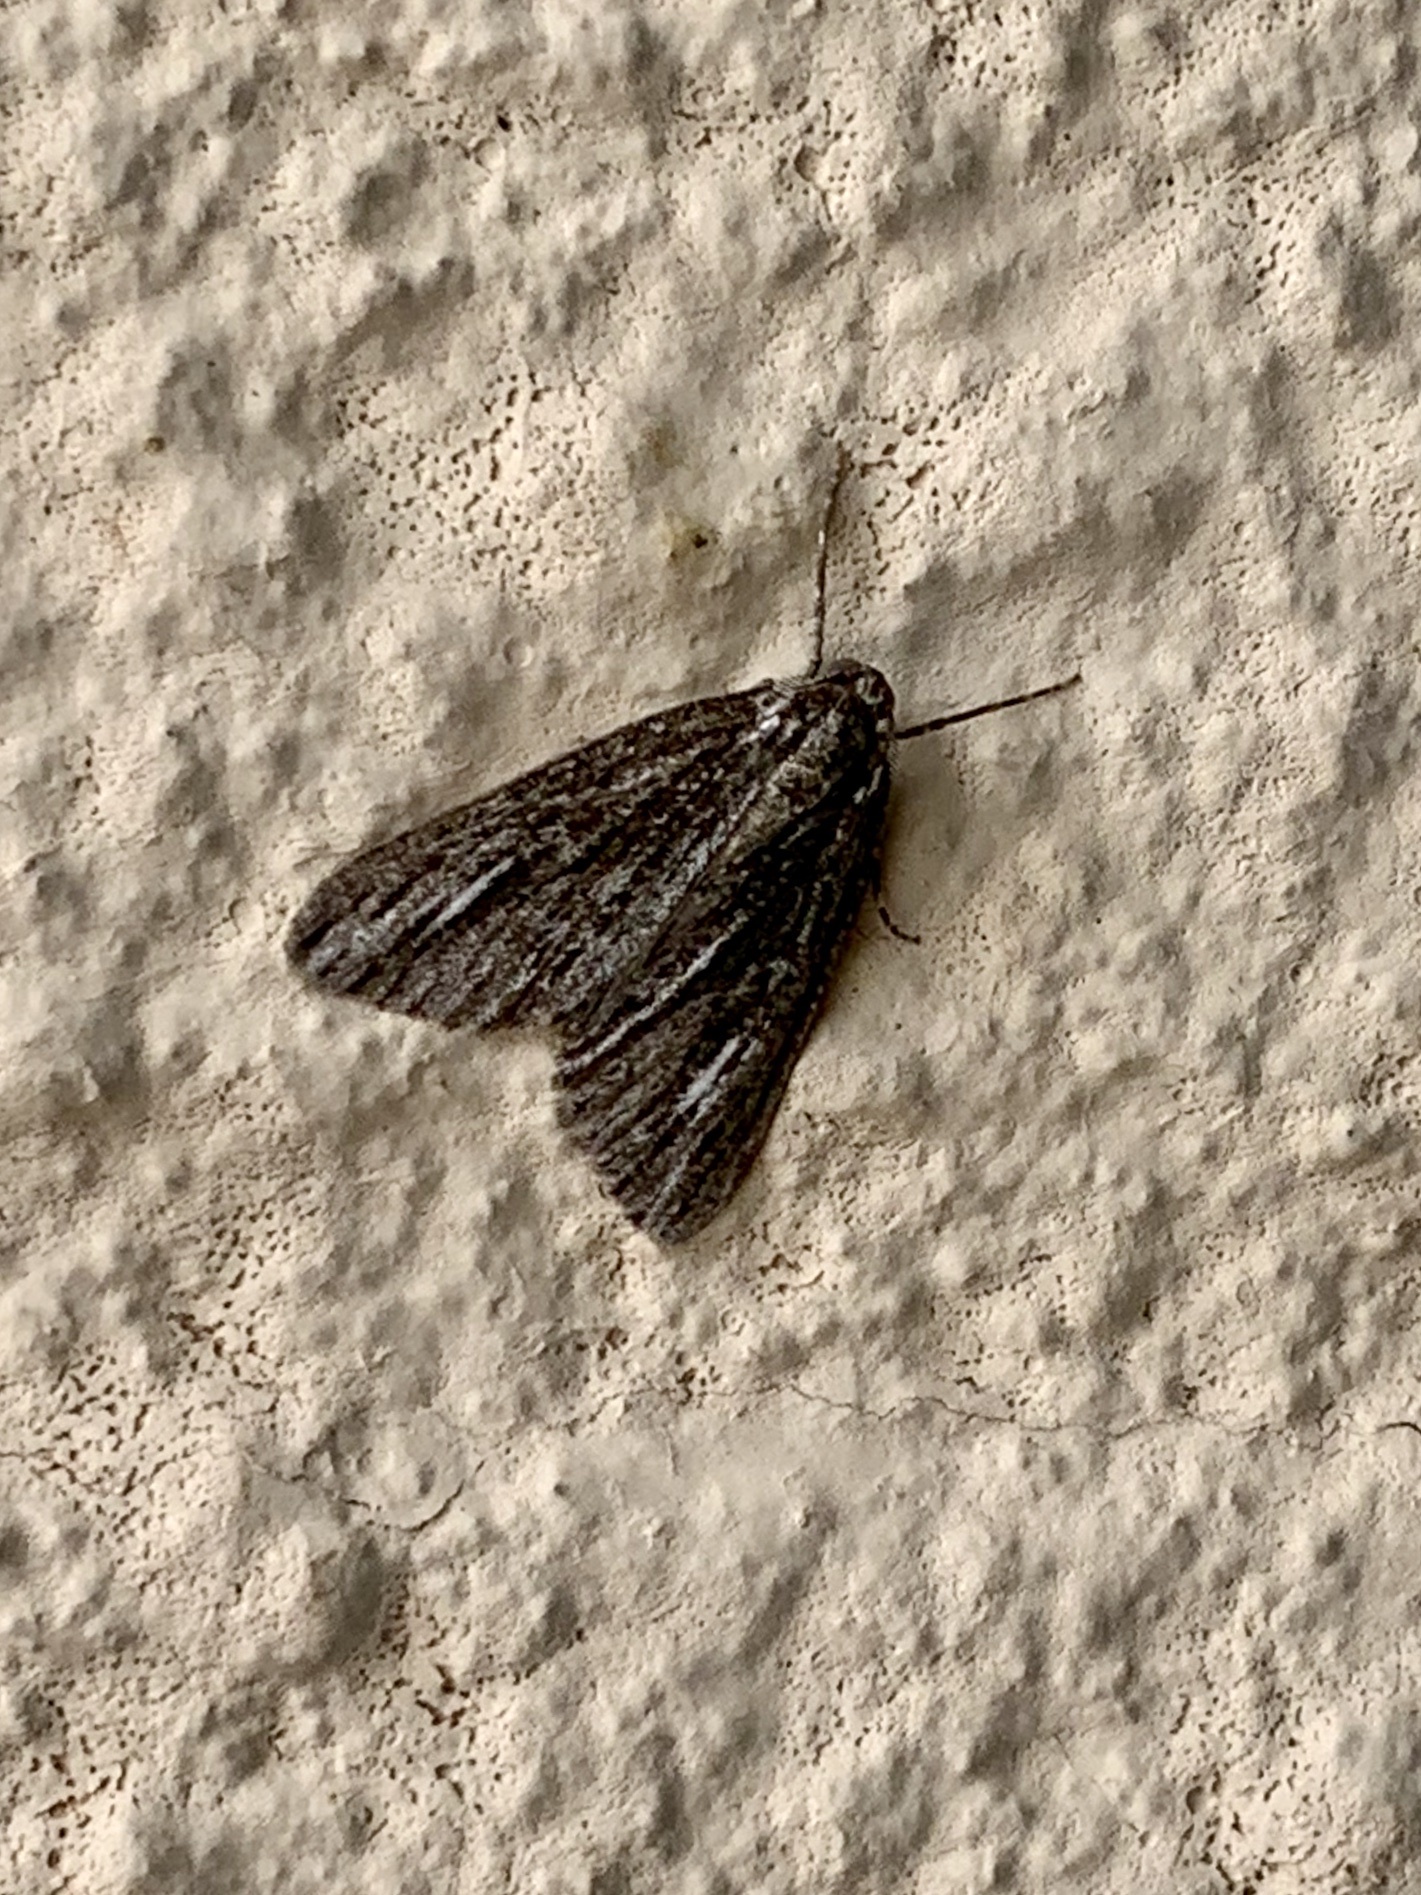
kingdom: Animalia
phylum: Arthropoda
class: Insecta
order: Lepidoptera
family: Geometridae
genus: Carphoides
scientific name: Carphoides incopriarius
